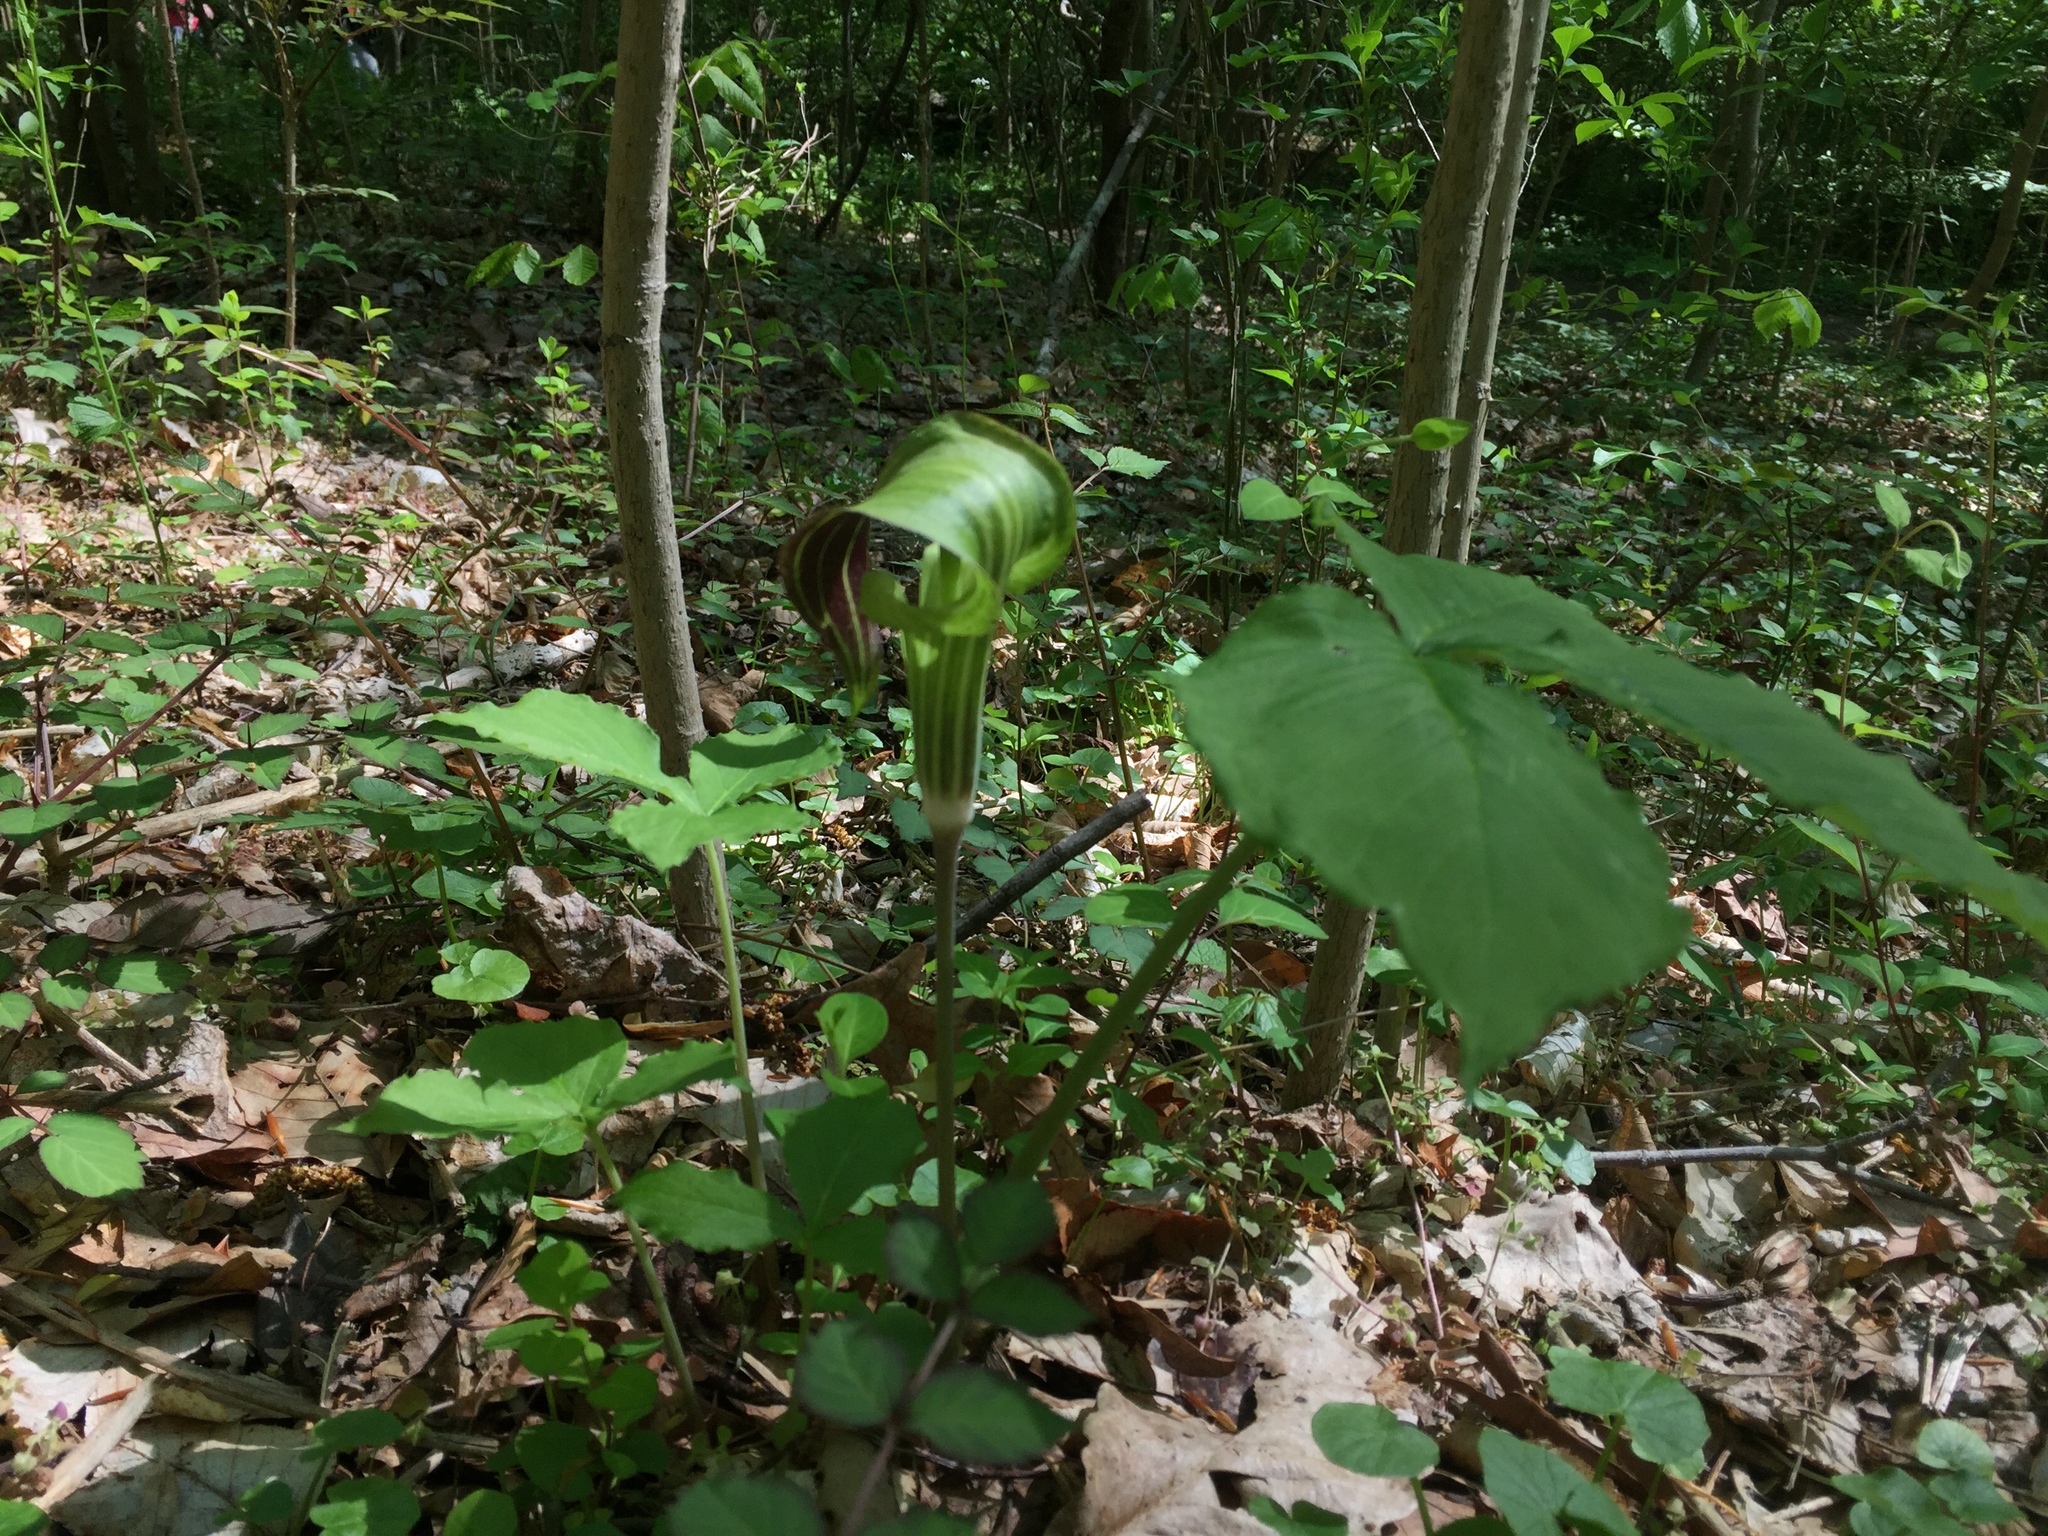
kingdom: Plantae
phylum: Tracheophyta
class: Liliopsida
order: Alismatales
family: Araceae
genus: Arisaema
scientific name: Arisaema triphyllum
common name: Jack-in-the-pulpit
